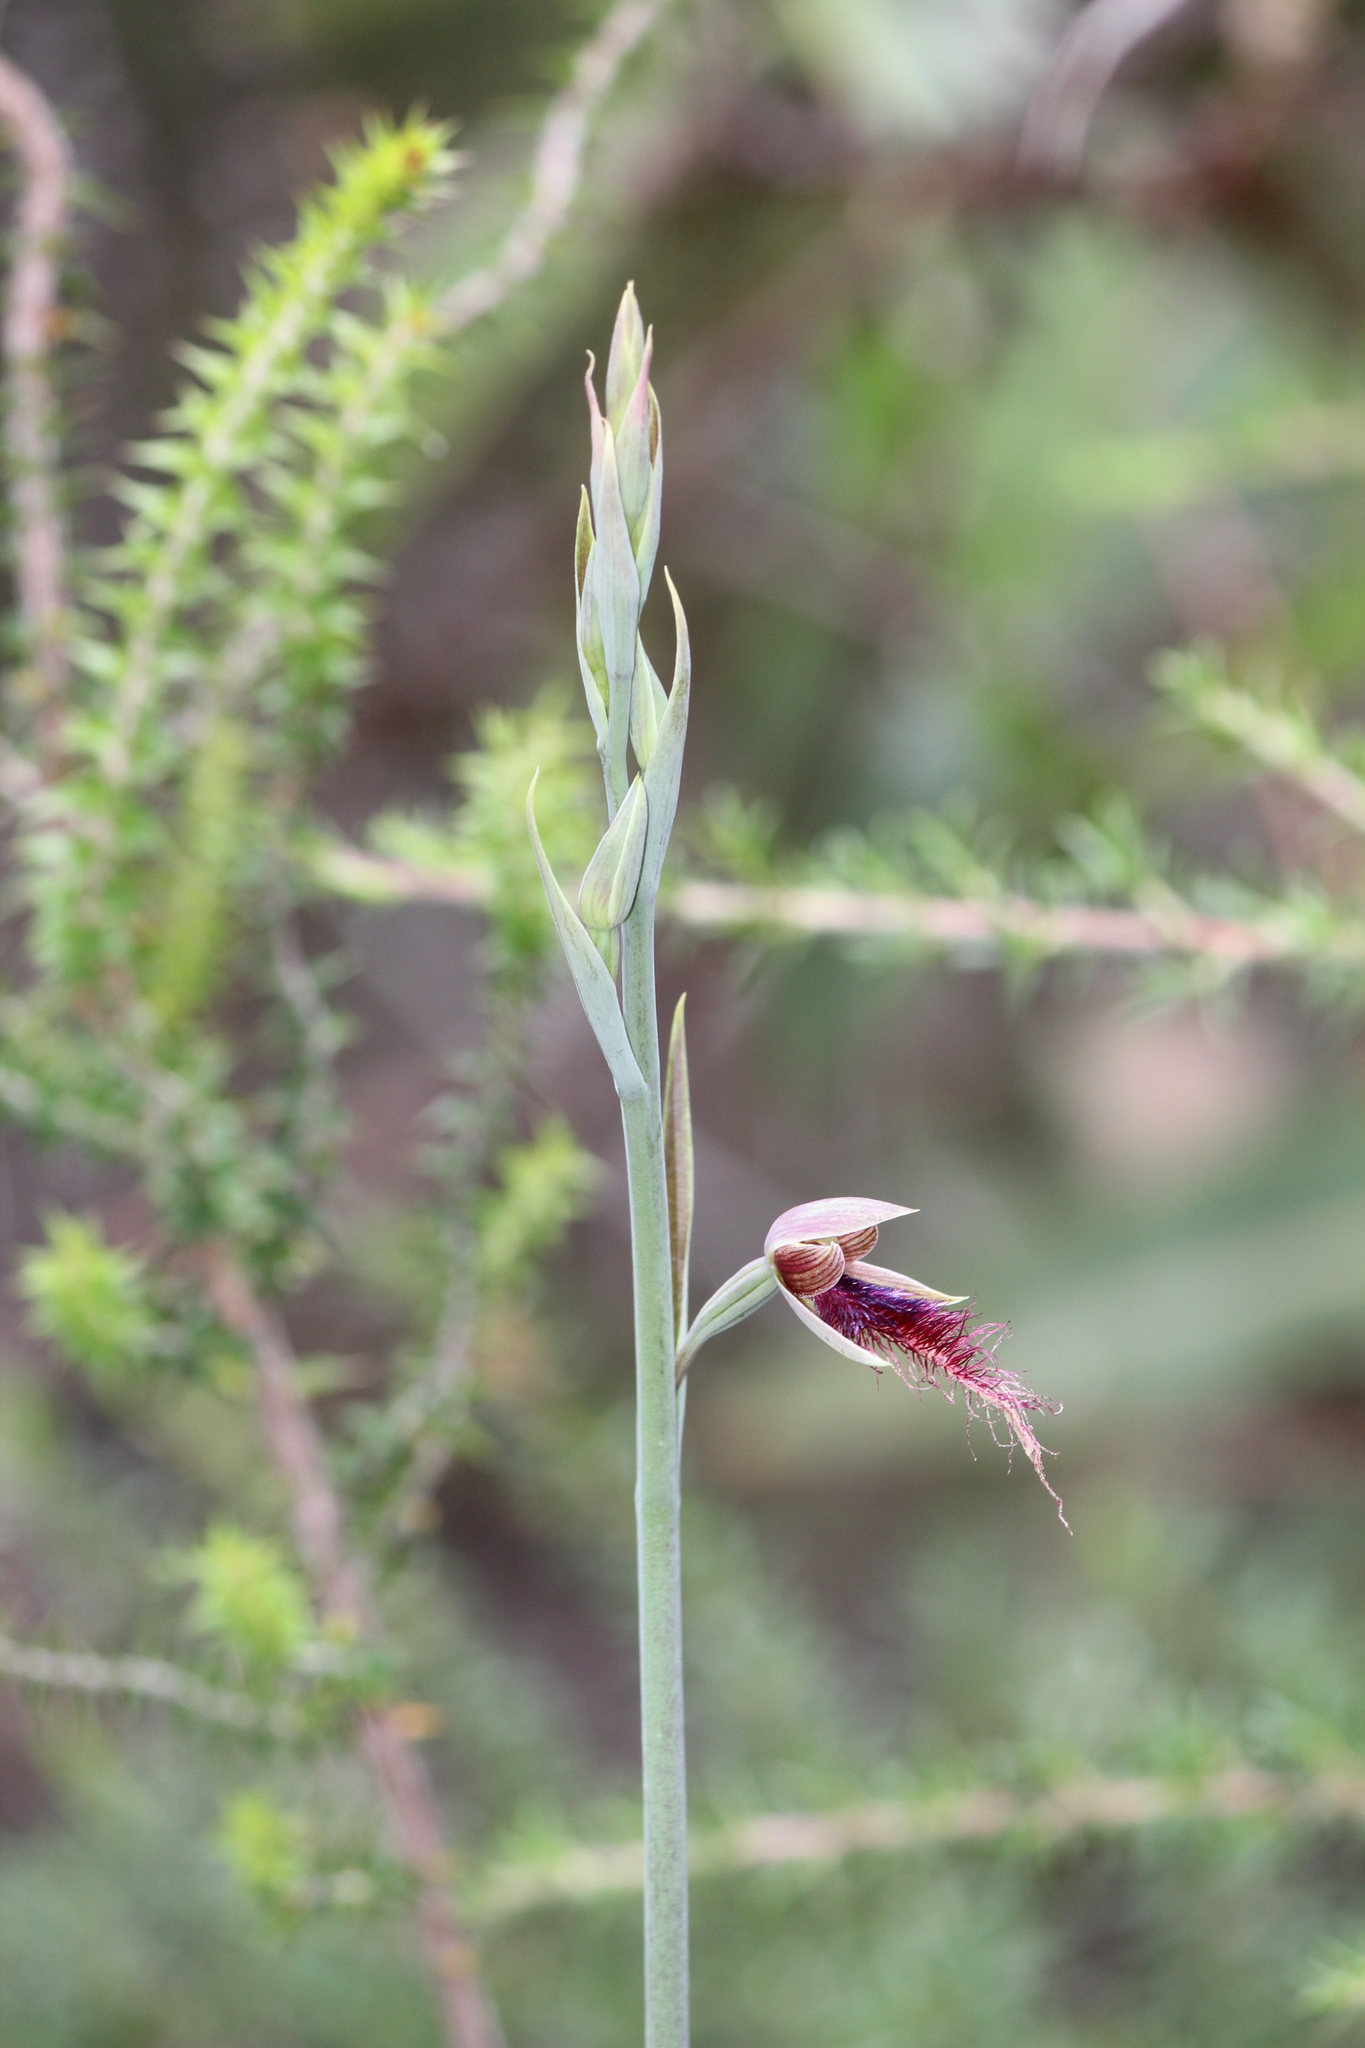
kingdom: Plantae
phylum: Tracheophyta
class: Liliopsida
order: Asparagales
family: Orchidaceae
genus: Calochilus
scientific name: Calochilus gracillimus
